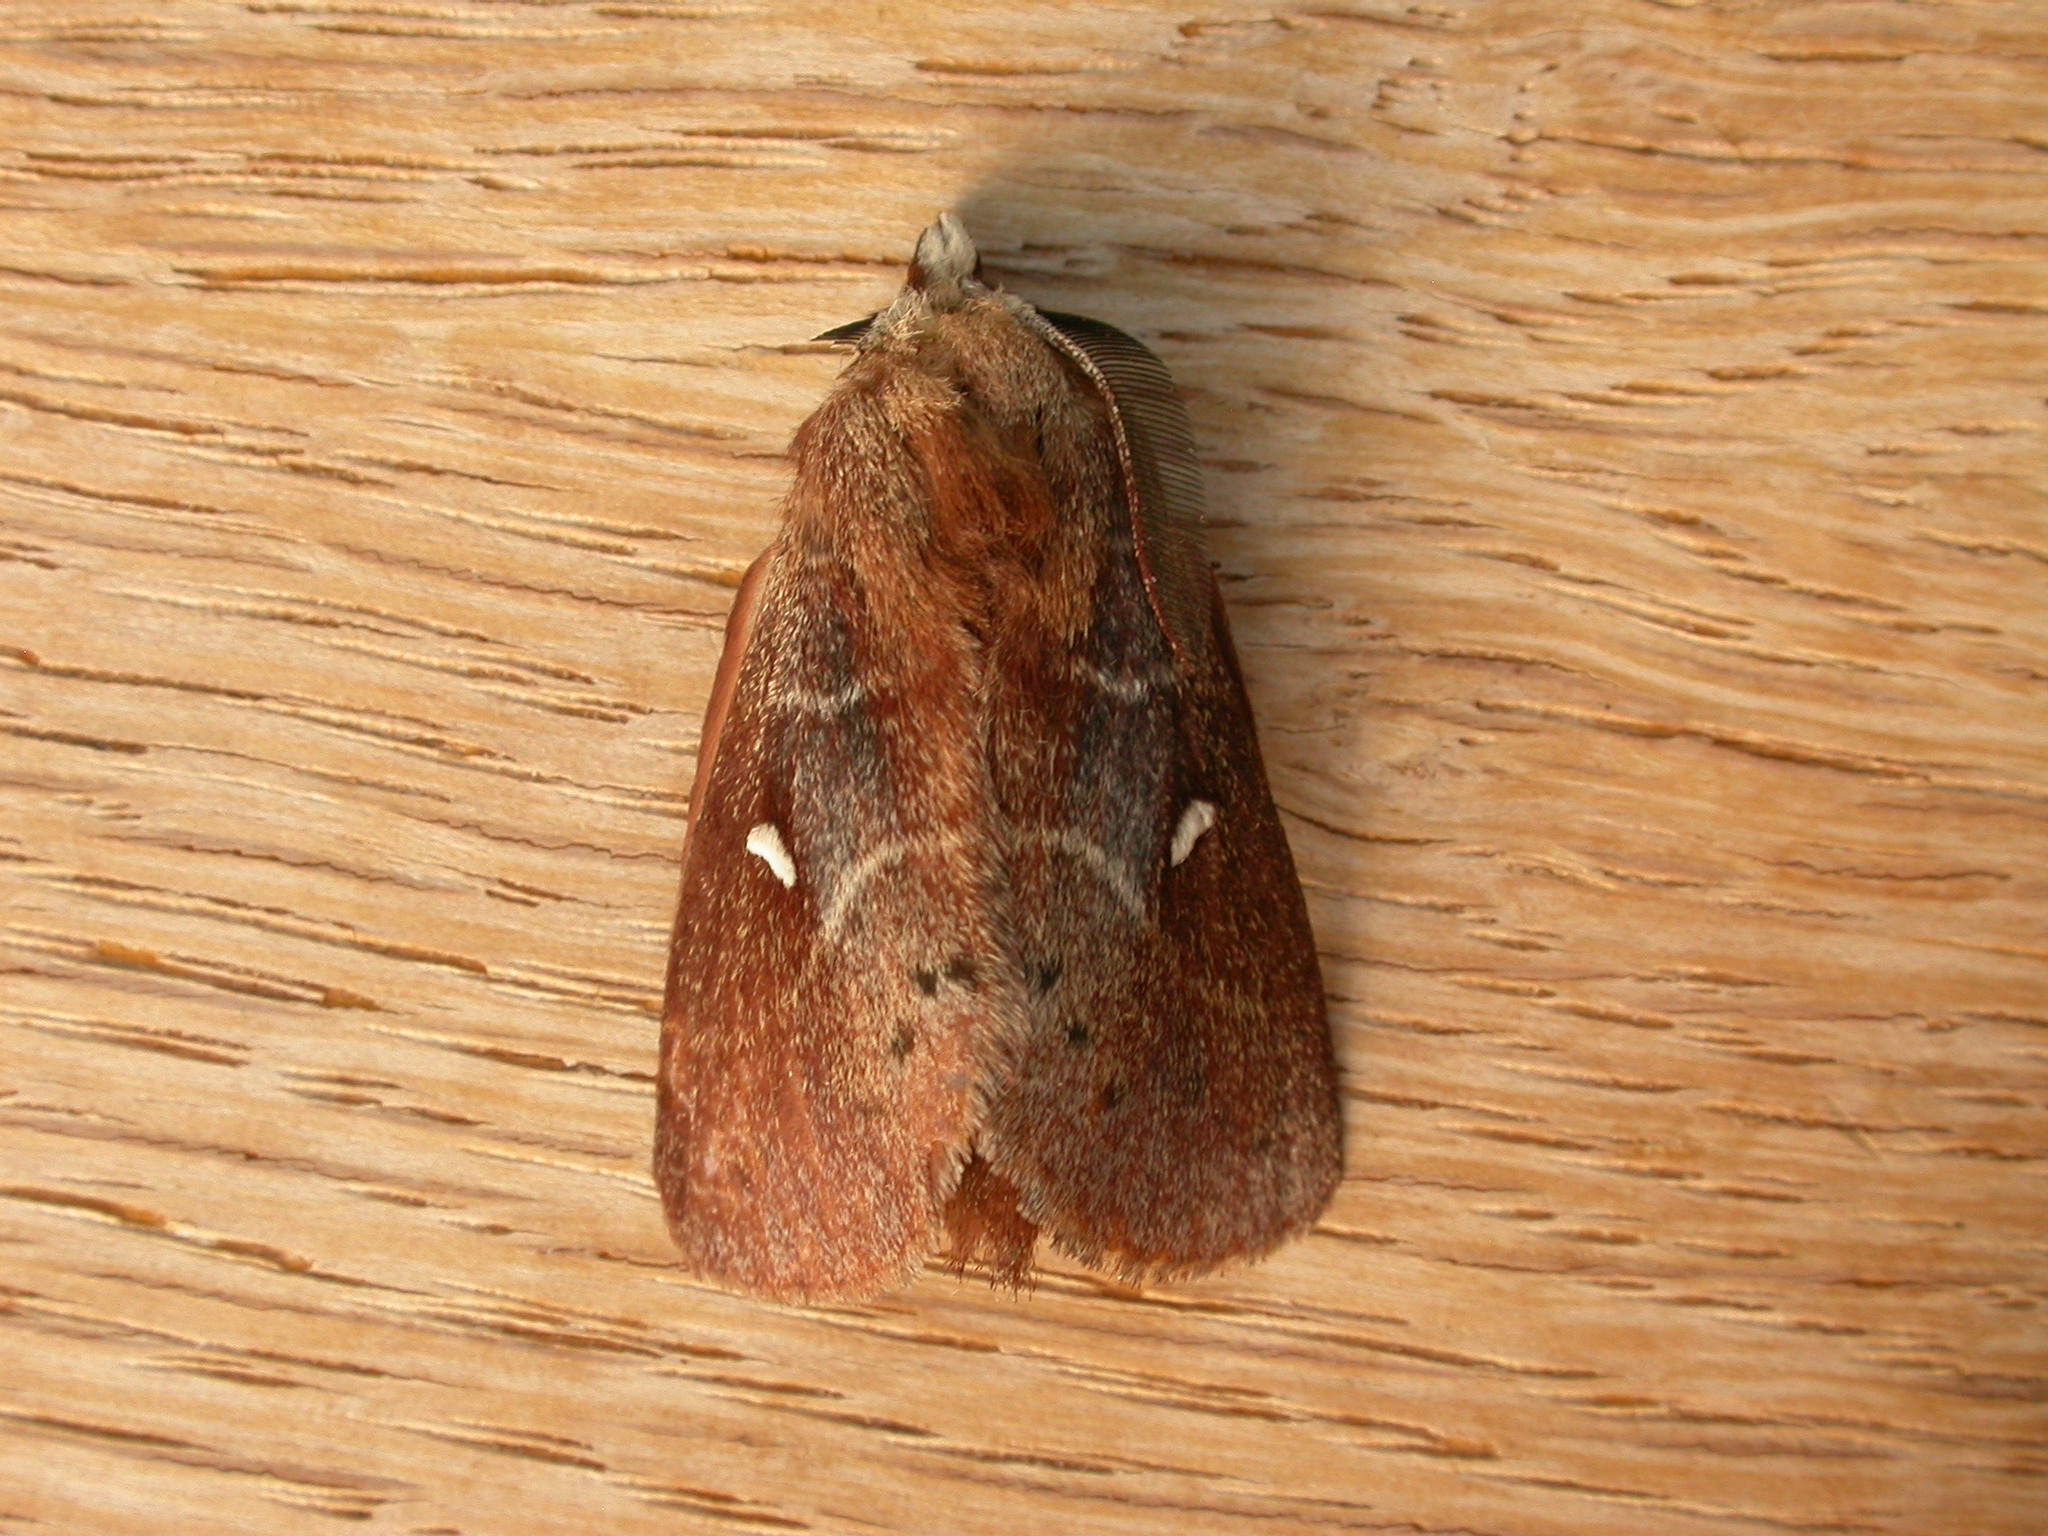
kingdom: Animalia
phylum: Arthropoda
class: Insecta
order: Lepidoptera
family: Lasiocampidae
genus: Opsirhina
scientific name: Opsirhina albigutta
